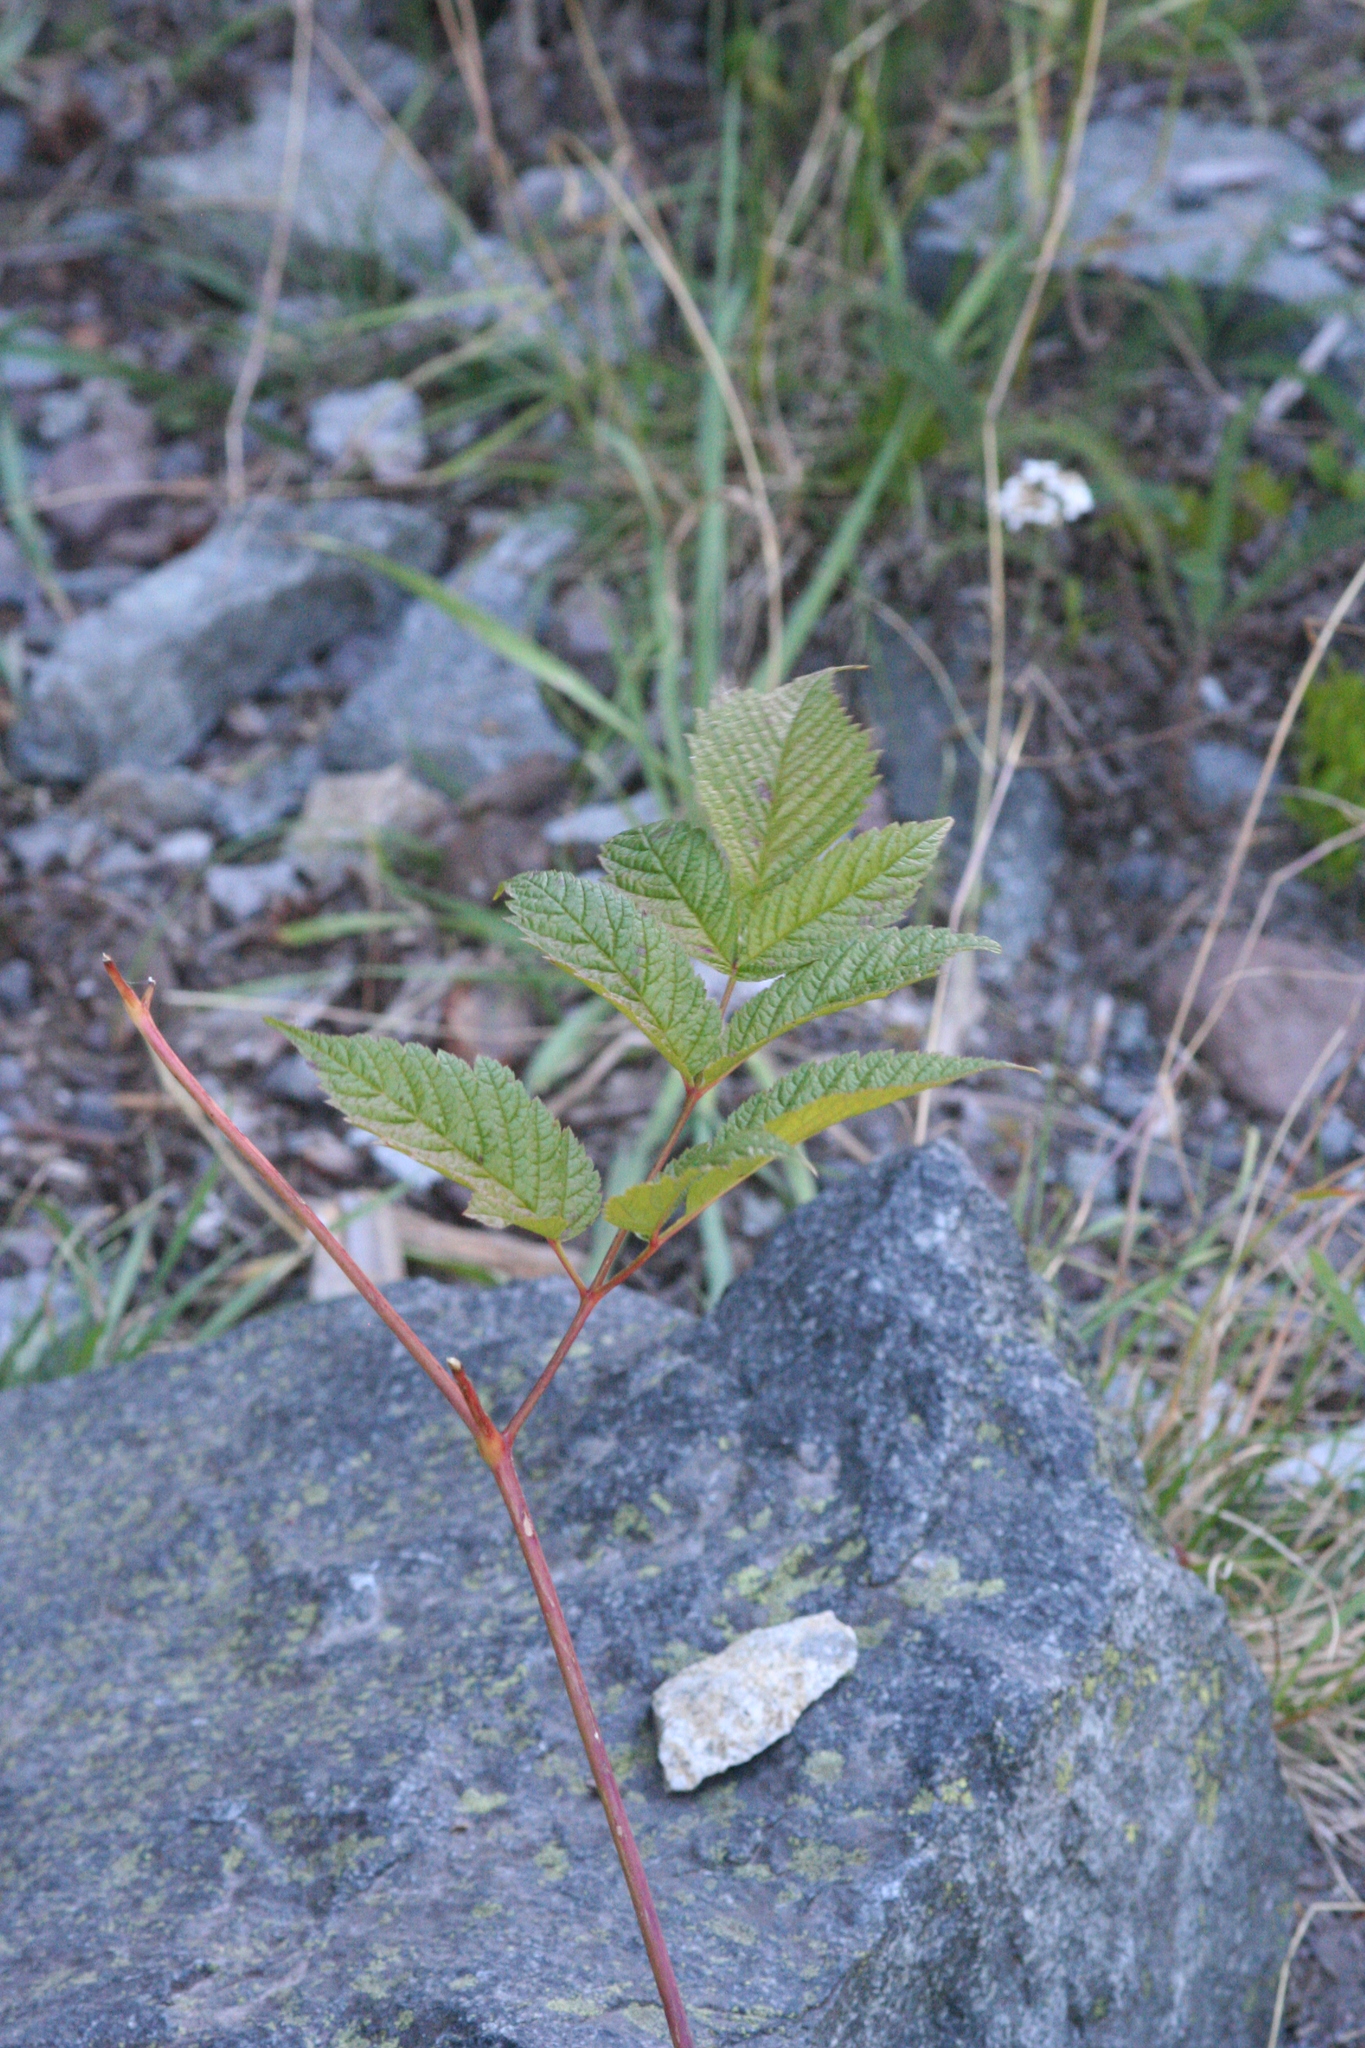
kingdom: Plantae
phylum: Tracheophyta
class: Magnoliopsida
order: Rosales
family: Rosaceae
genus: Aruncus
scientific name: Aruncus dioicus
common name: Buck's-beard
